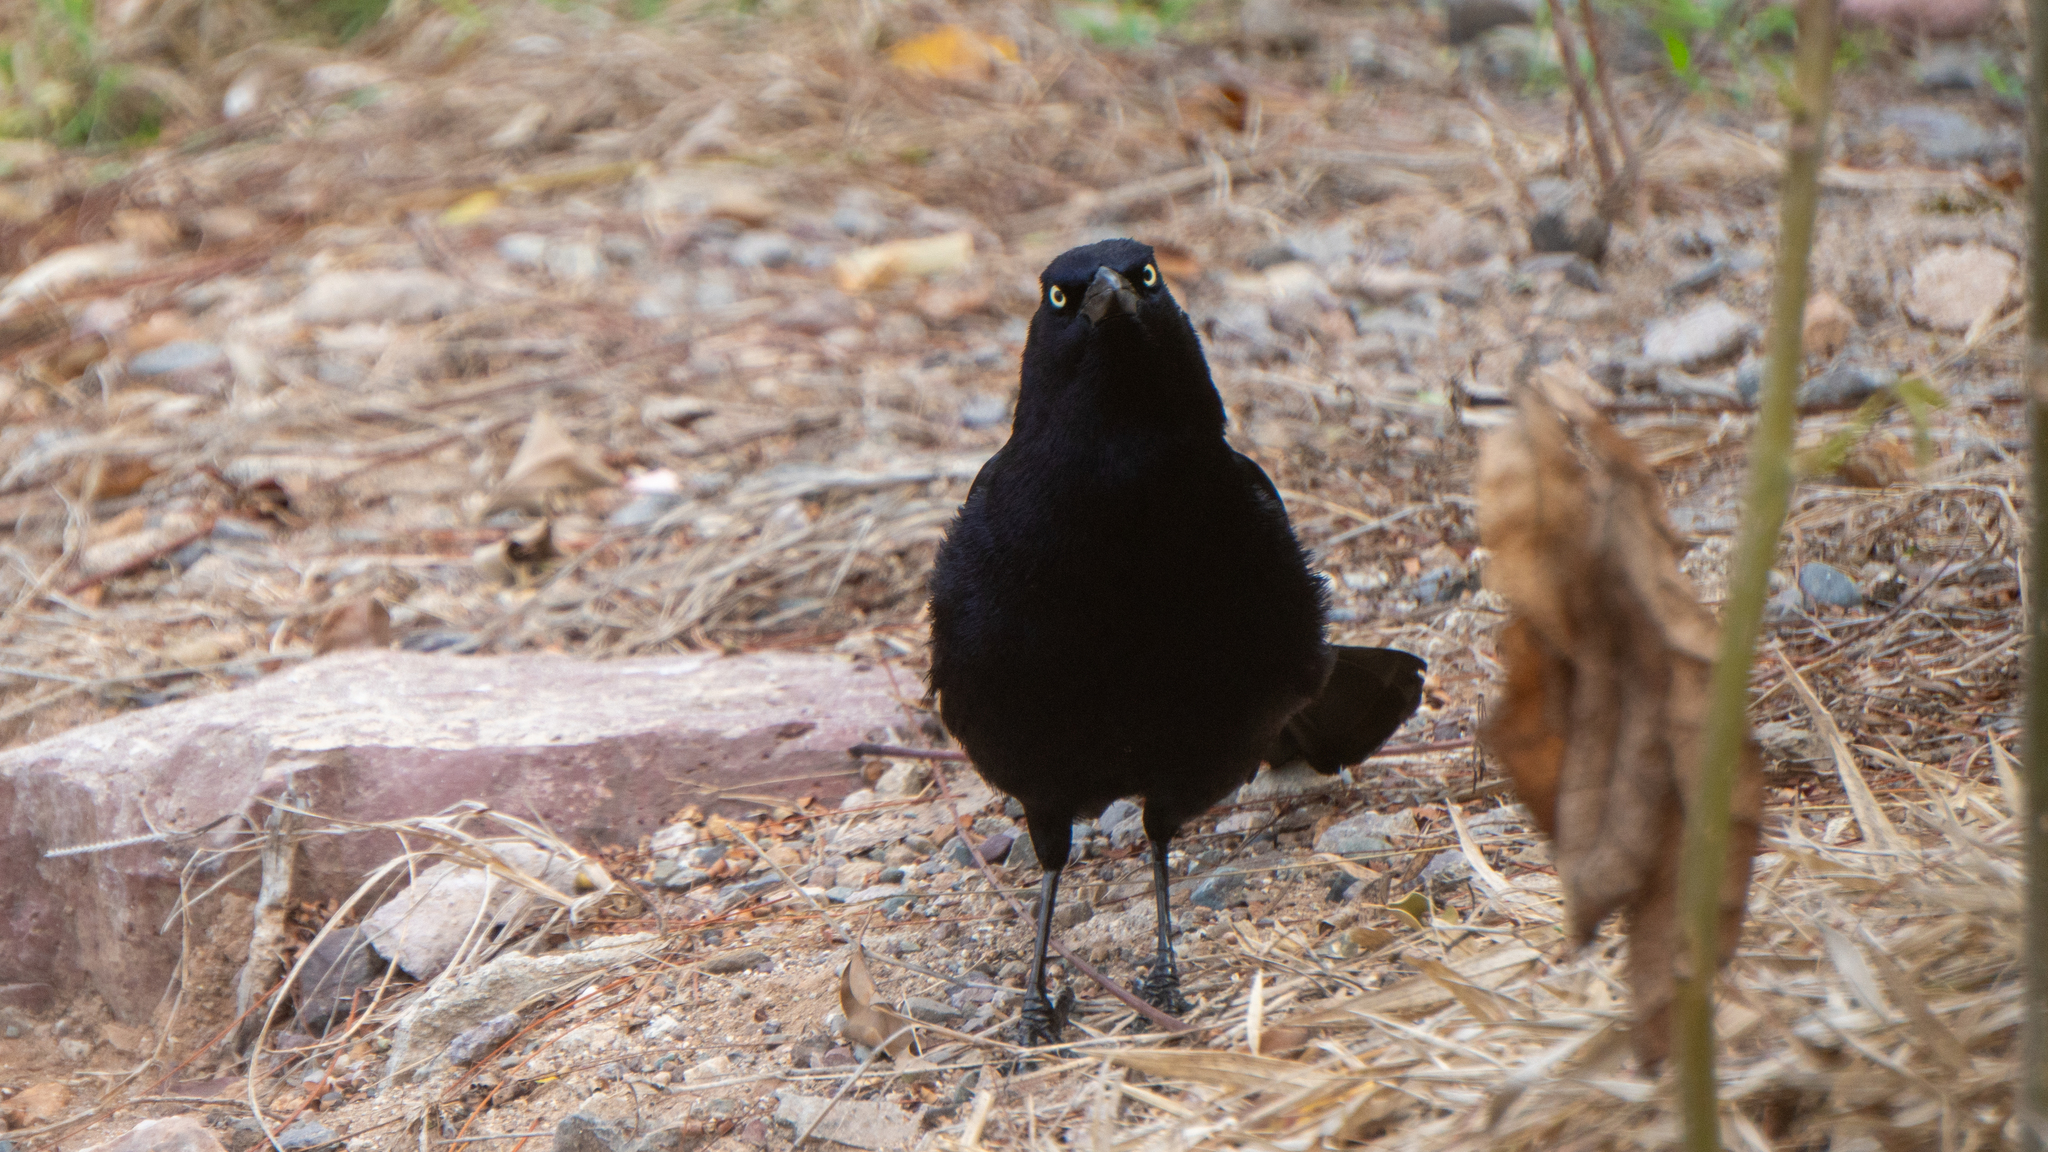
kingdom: Animalia
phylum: Chordata
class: Aves
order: Passeriformes
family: Icteridae
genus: Quiscalus
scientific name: Quiscalus mexicanus
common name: Great-tailed grackle
